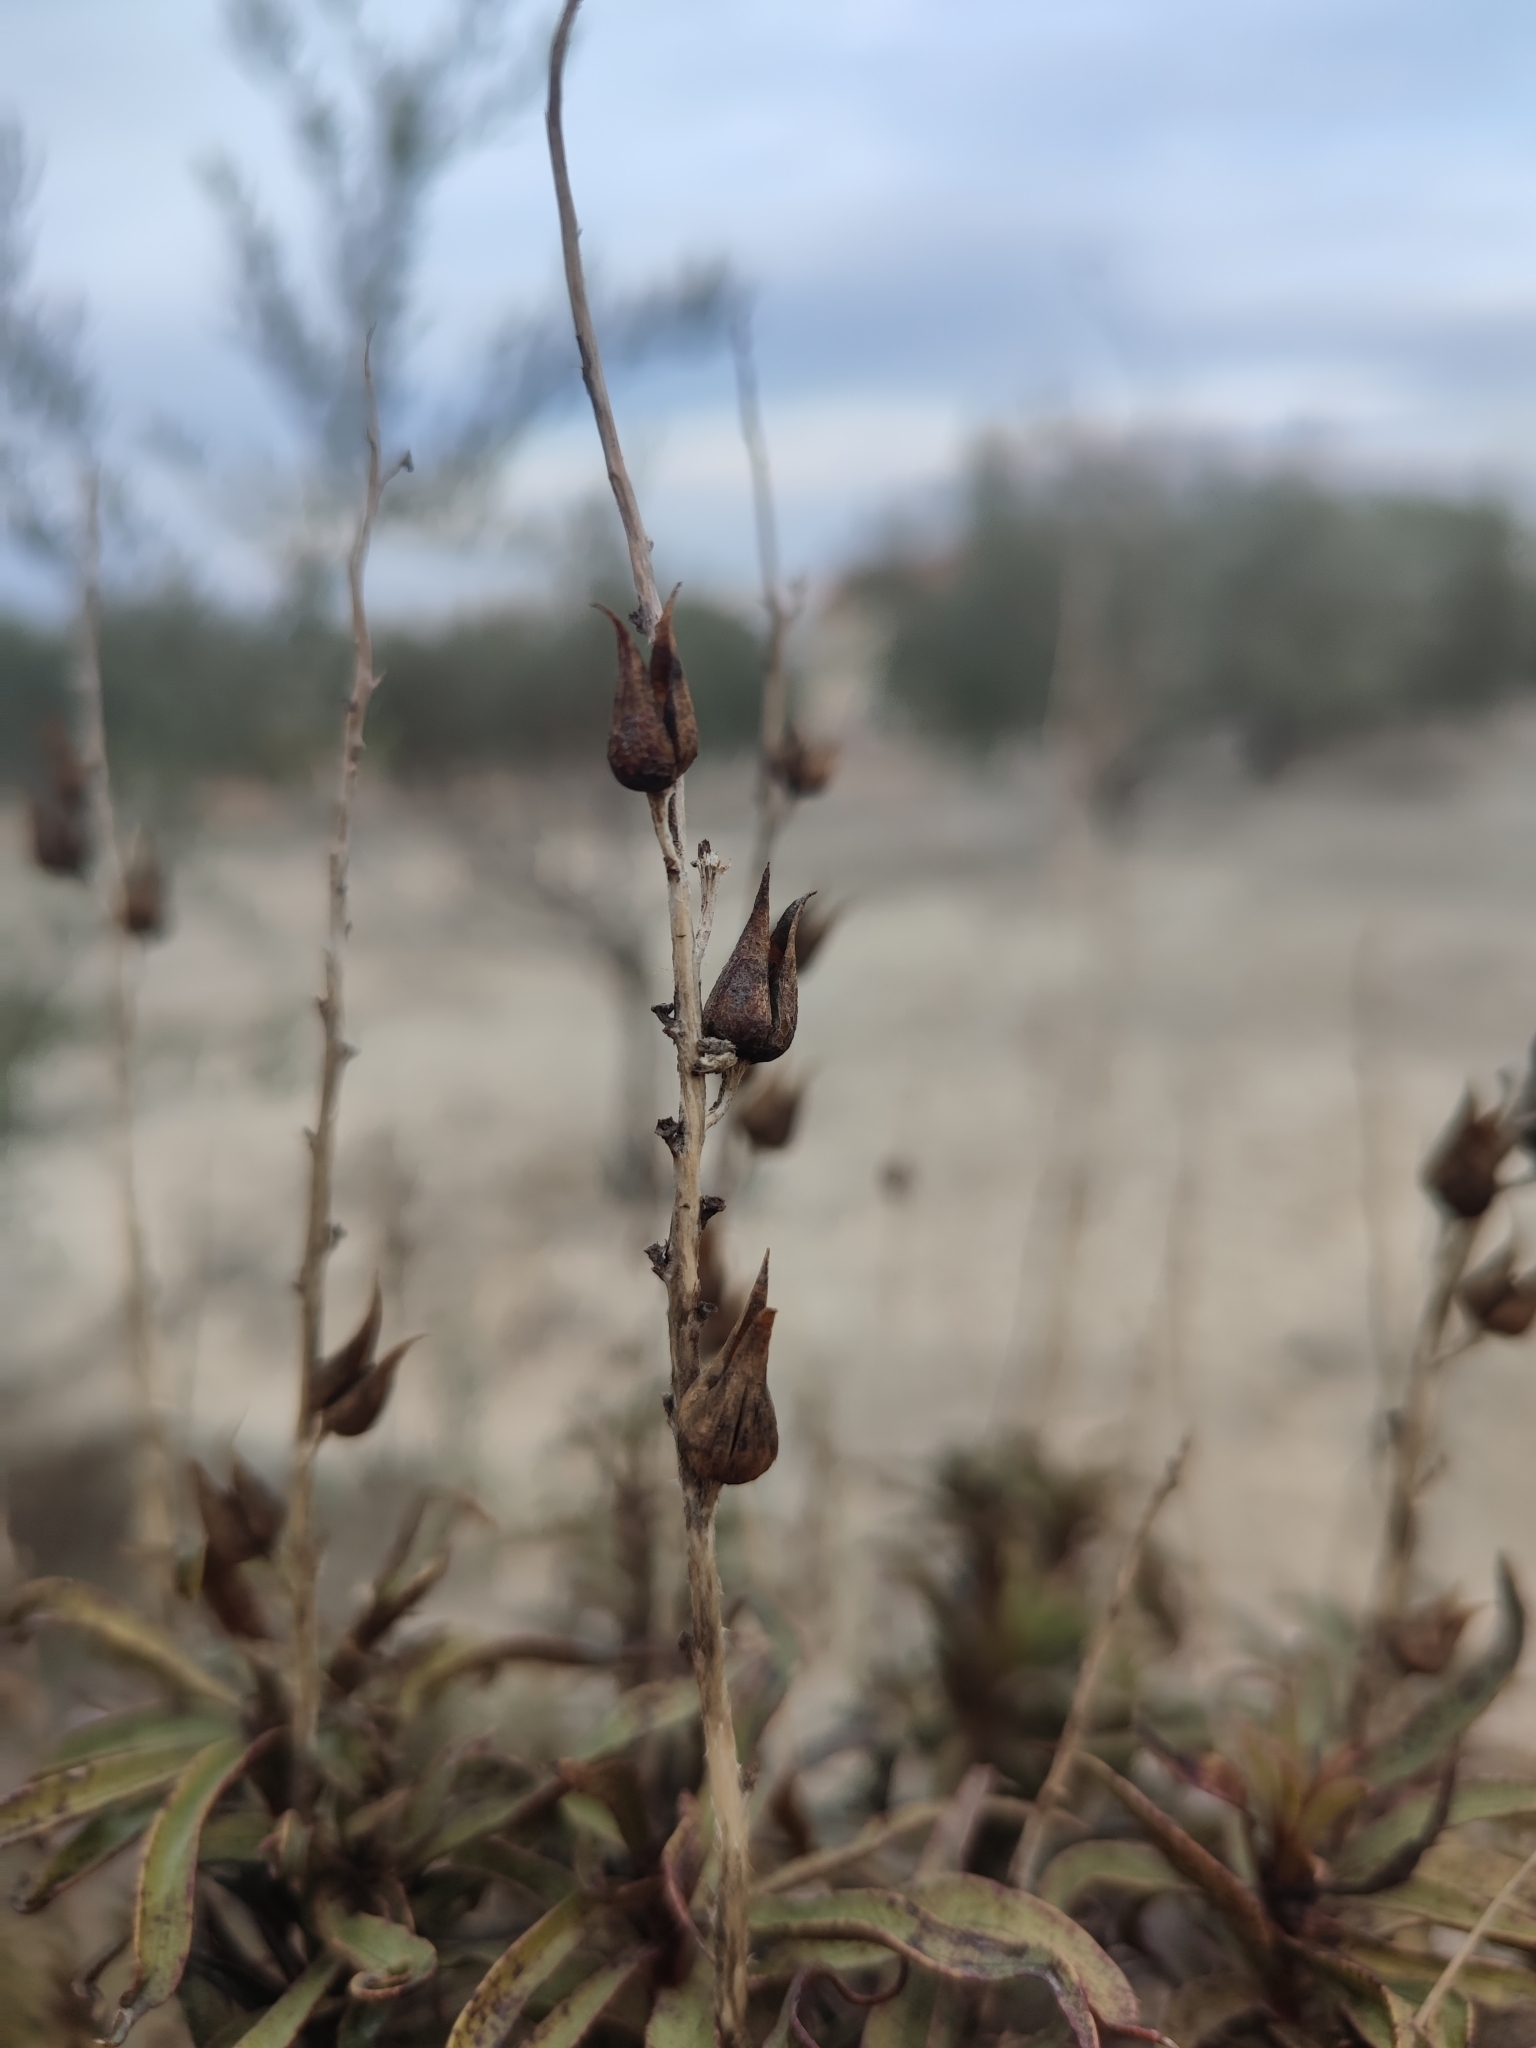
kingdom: Plantae
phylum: Tracheophyta
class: Magnoliopsida
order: Lamiales
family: Plantaginaceae
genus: Digitalis
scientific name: Digitalis obscura
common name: Willow-leaf foxglove
